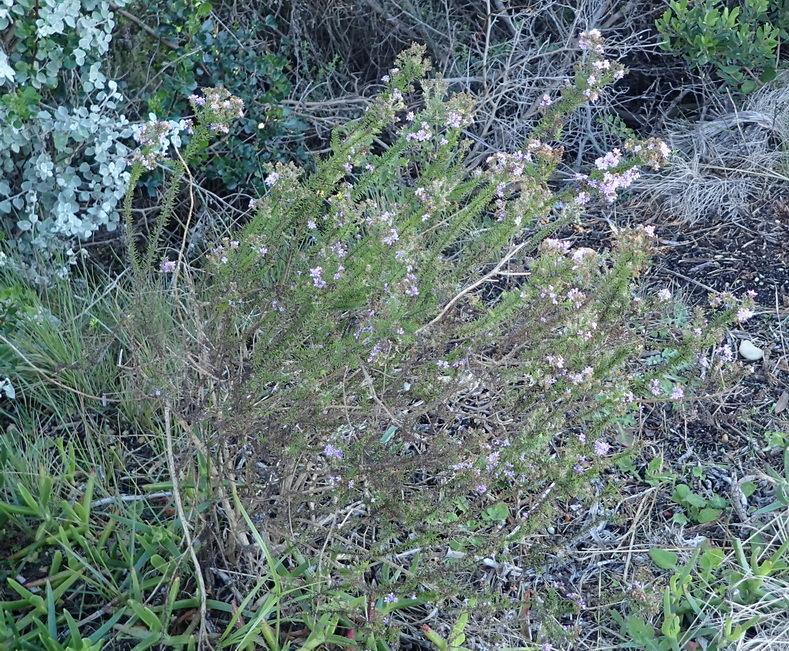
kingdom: Plantae
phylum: Tracheophyta
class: Magnoliopsida
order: Lamiales
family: Scrophulariaceae
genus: Selago
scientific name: Selago villicaulis
